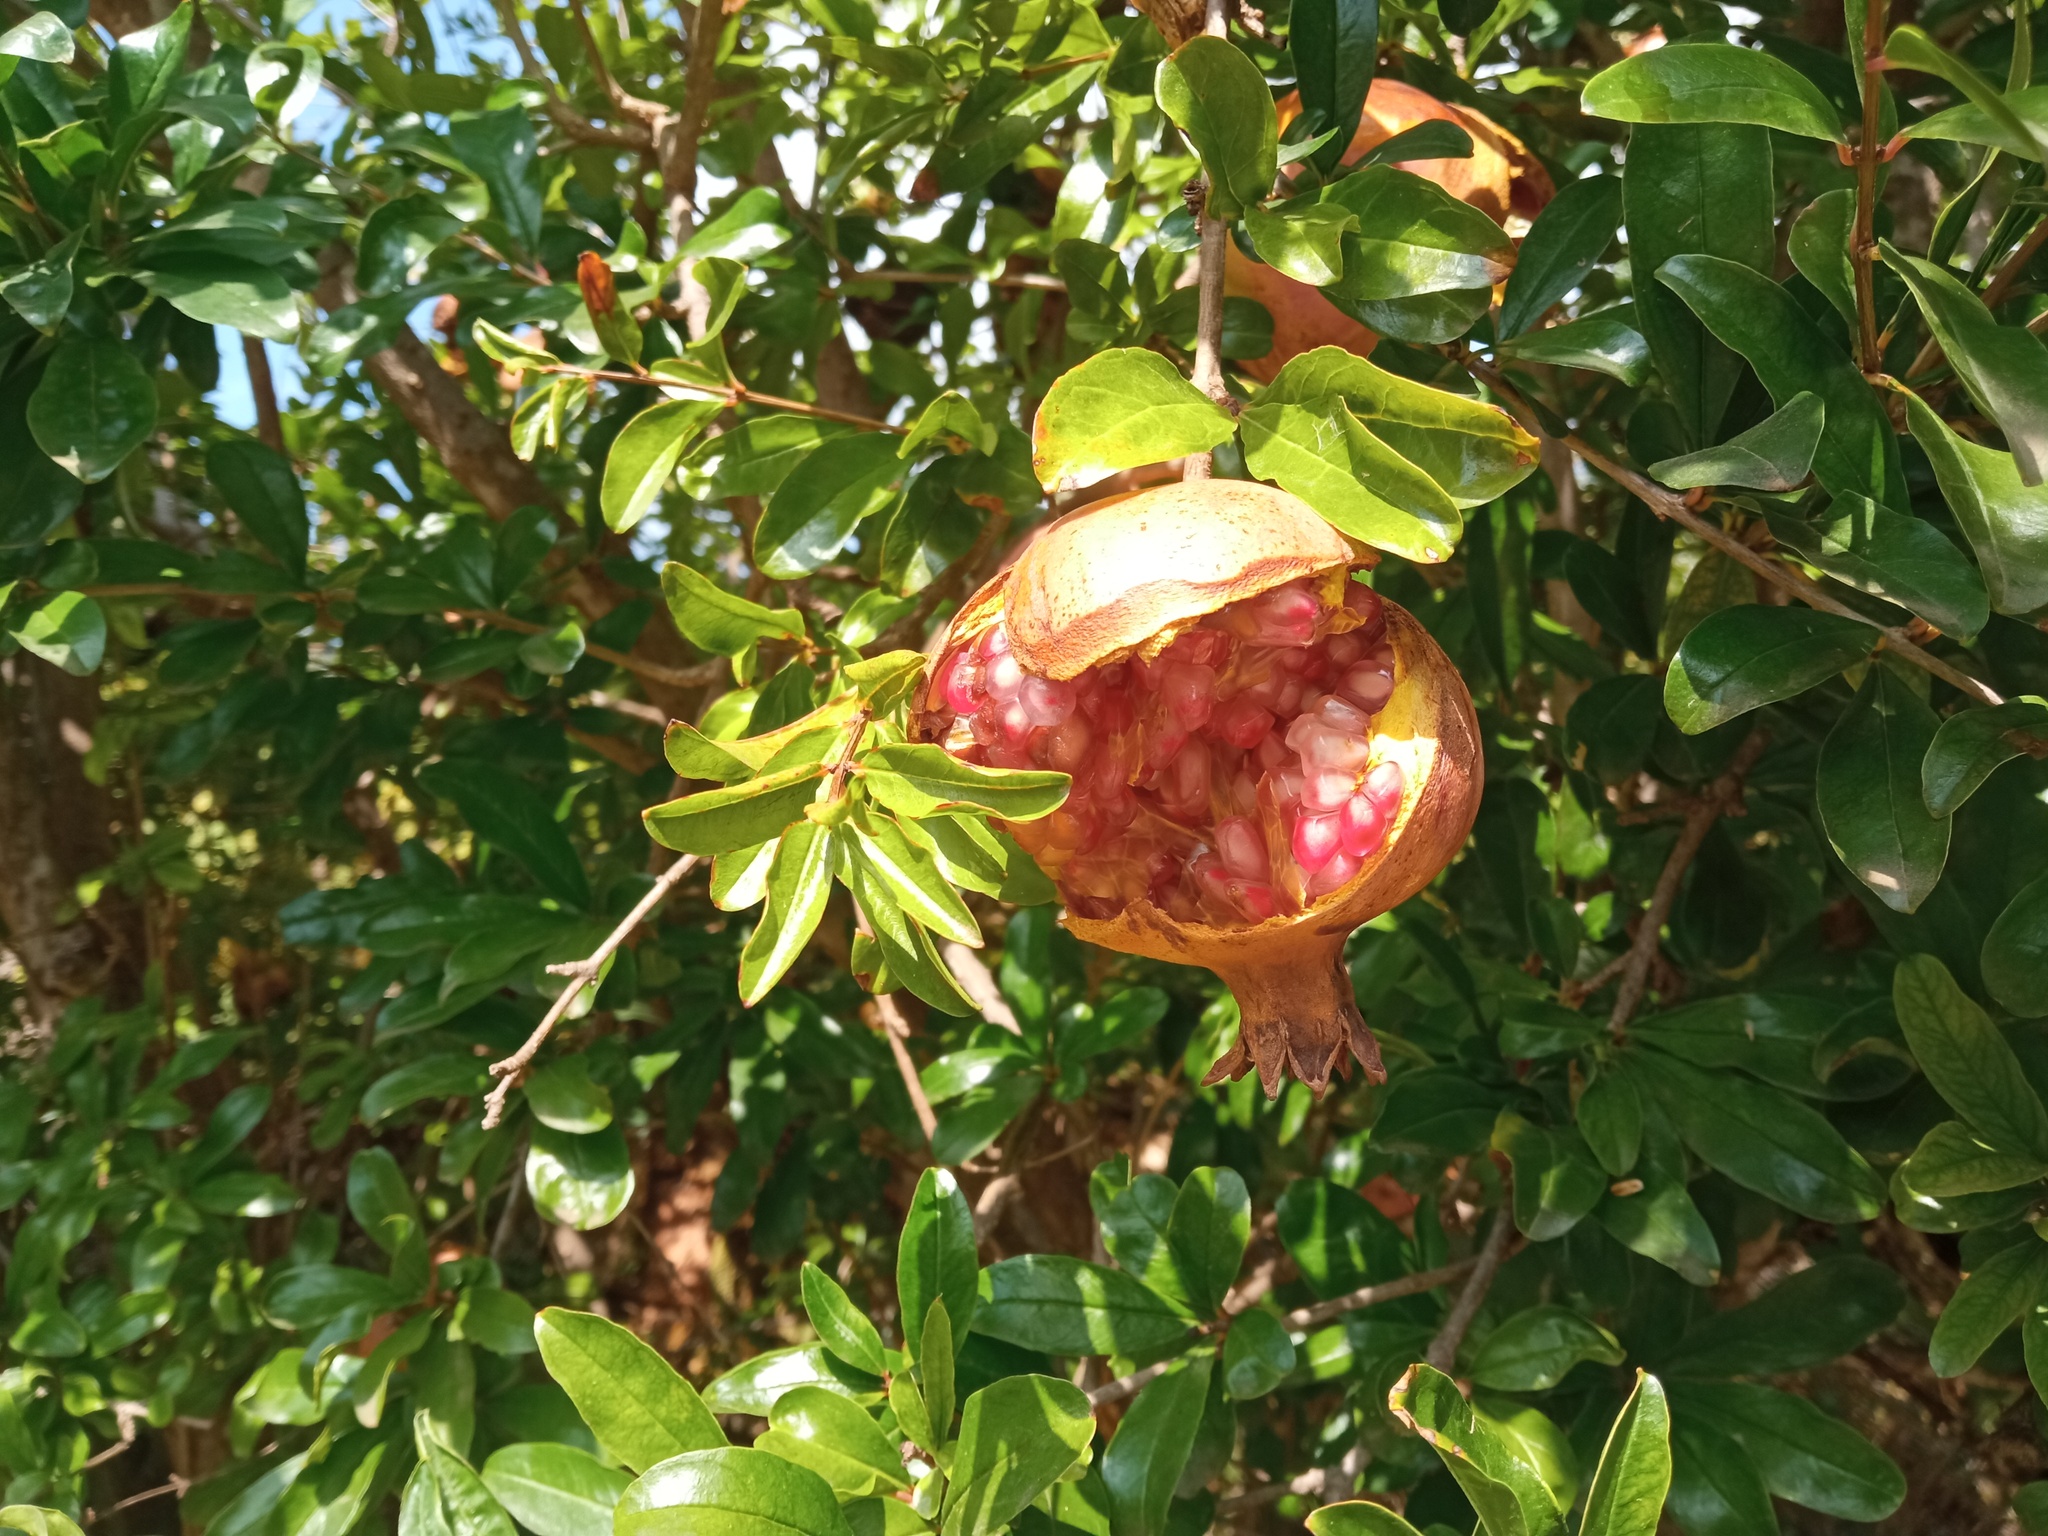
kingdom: Plantae
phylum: Tracheophyta
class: Magnoliopsida
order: Myrtales
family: Lythraceae
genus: Punica
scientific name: Punica granatum
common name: Pomegranate
